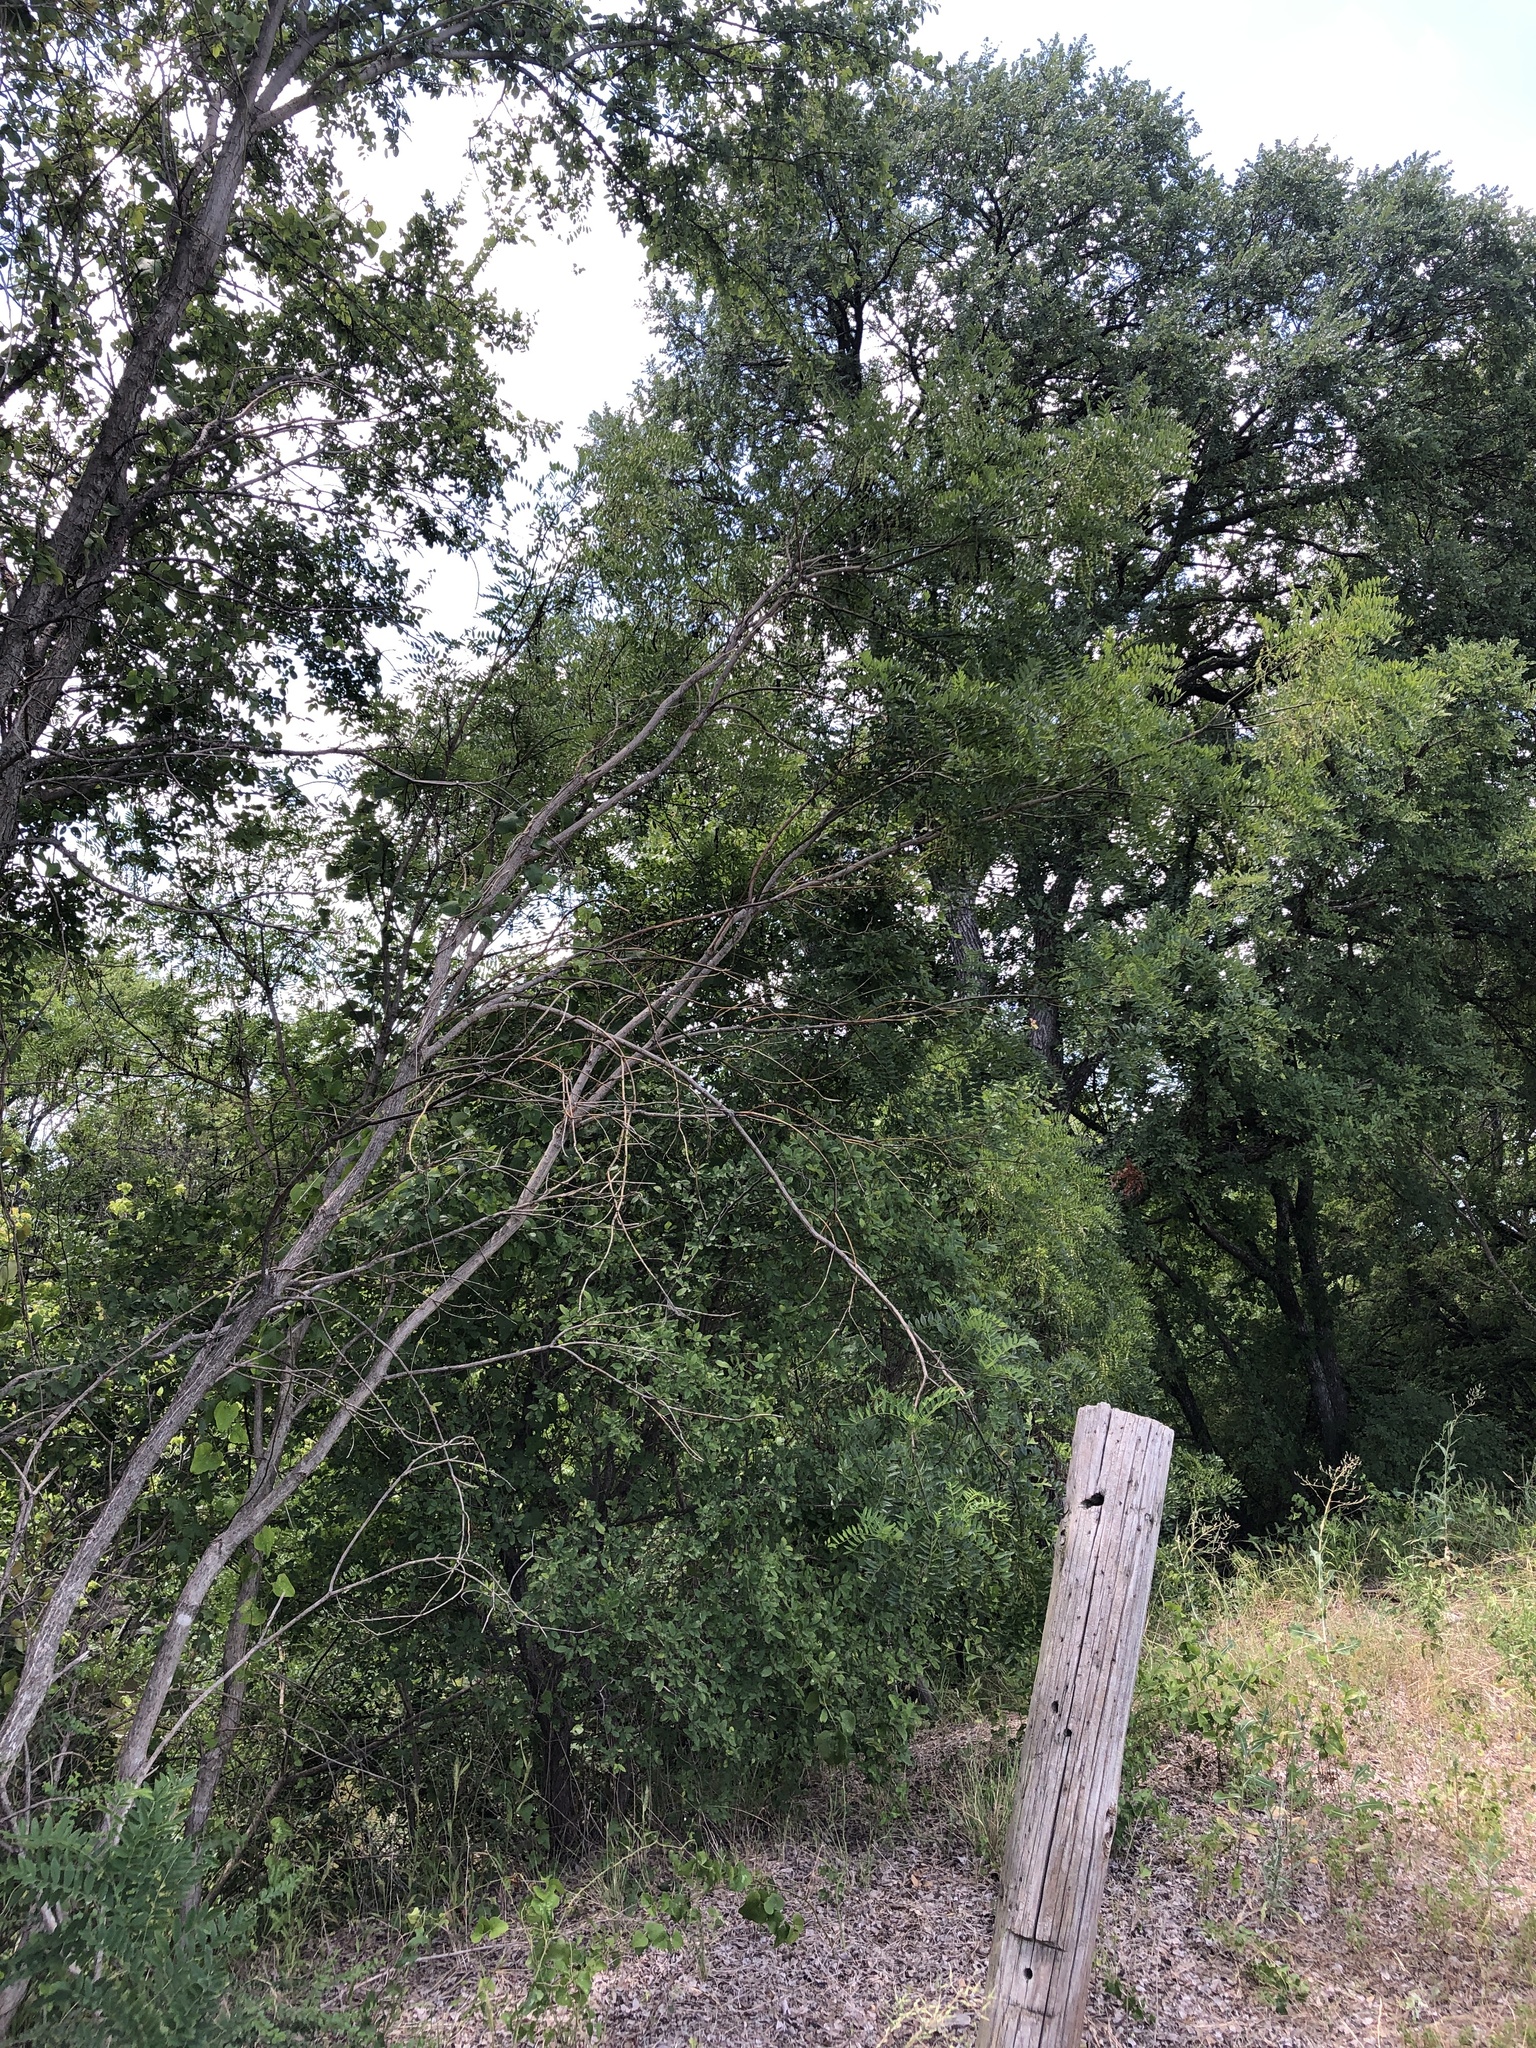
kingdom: Plantae
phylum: Tracheophyta
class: Magnoliopsida
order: Fabales
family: Fabaceae
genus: Styphnolobium
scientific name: Styphnolobium affine
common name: Texas sophora
